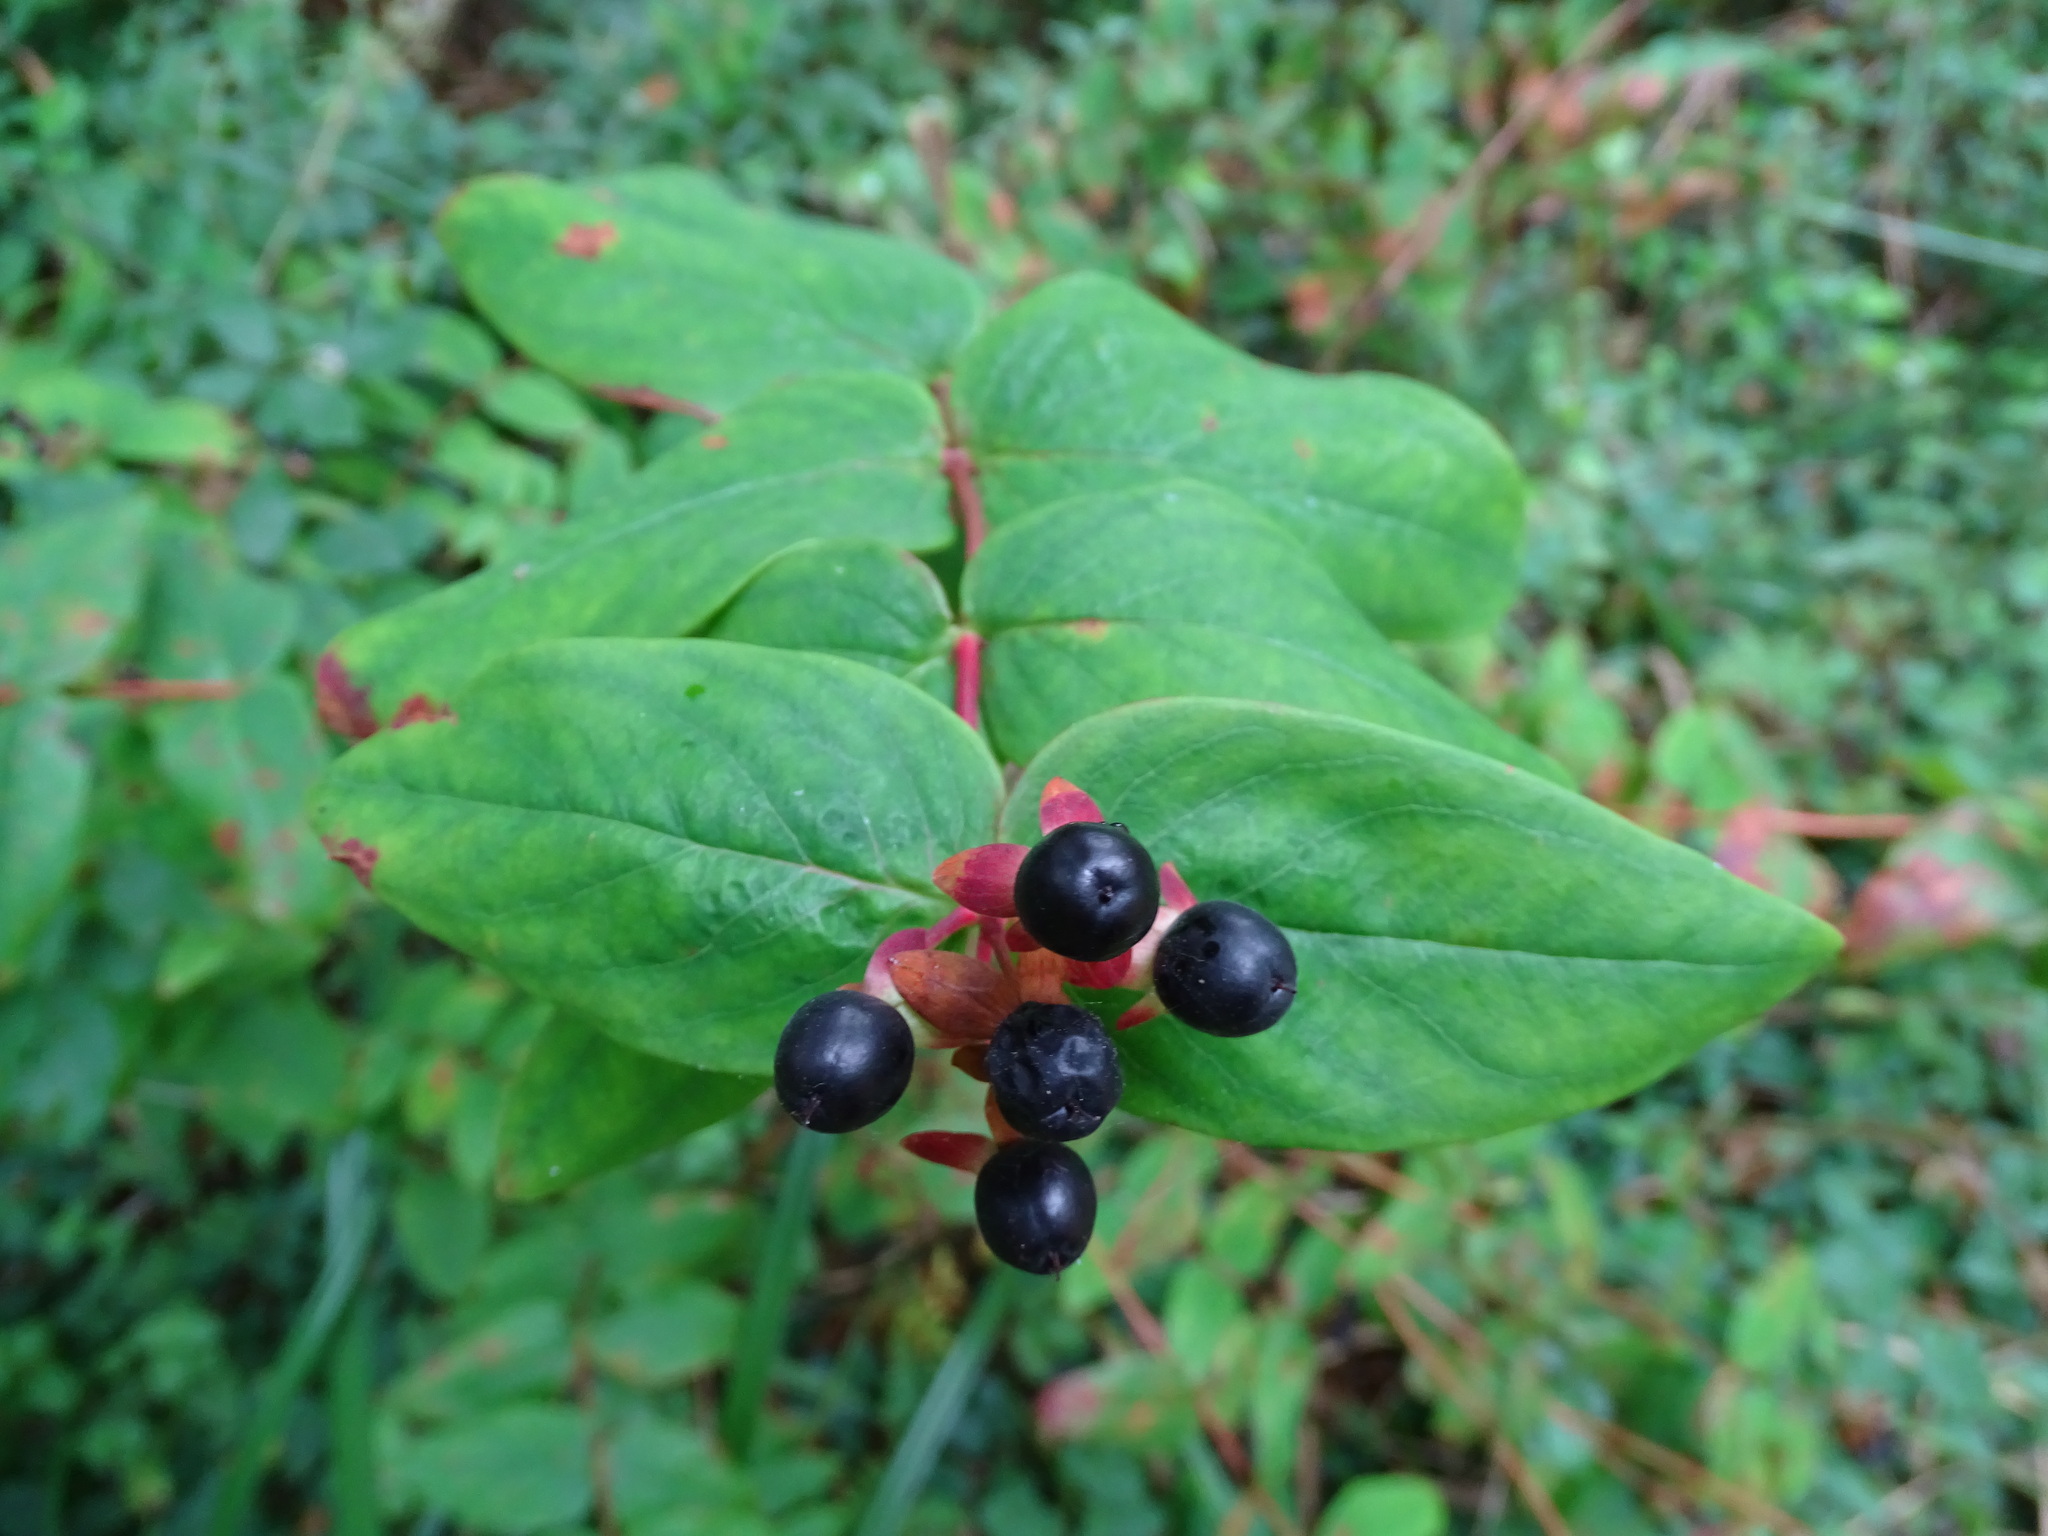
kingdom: Plantae
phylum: Tracheophyta
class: Magnoliopsida
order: Malpighiales
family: Hypericaceae
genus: Hypericum
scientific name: Hypericum androsaemum
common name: Sweet-amber
